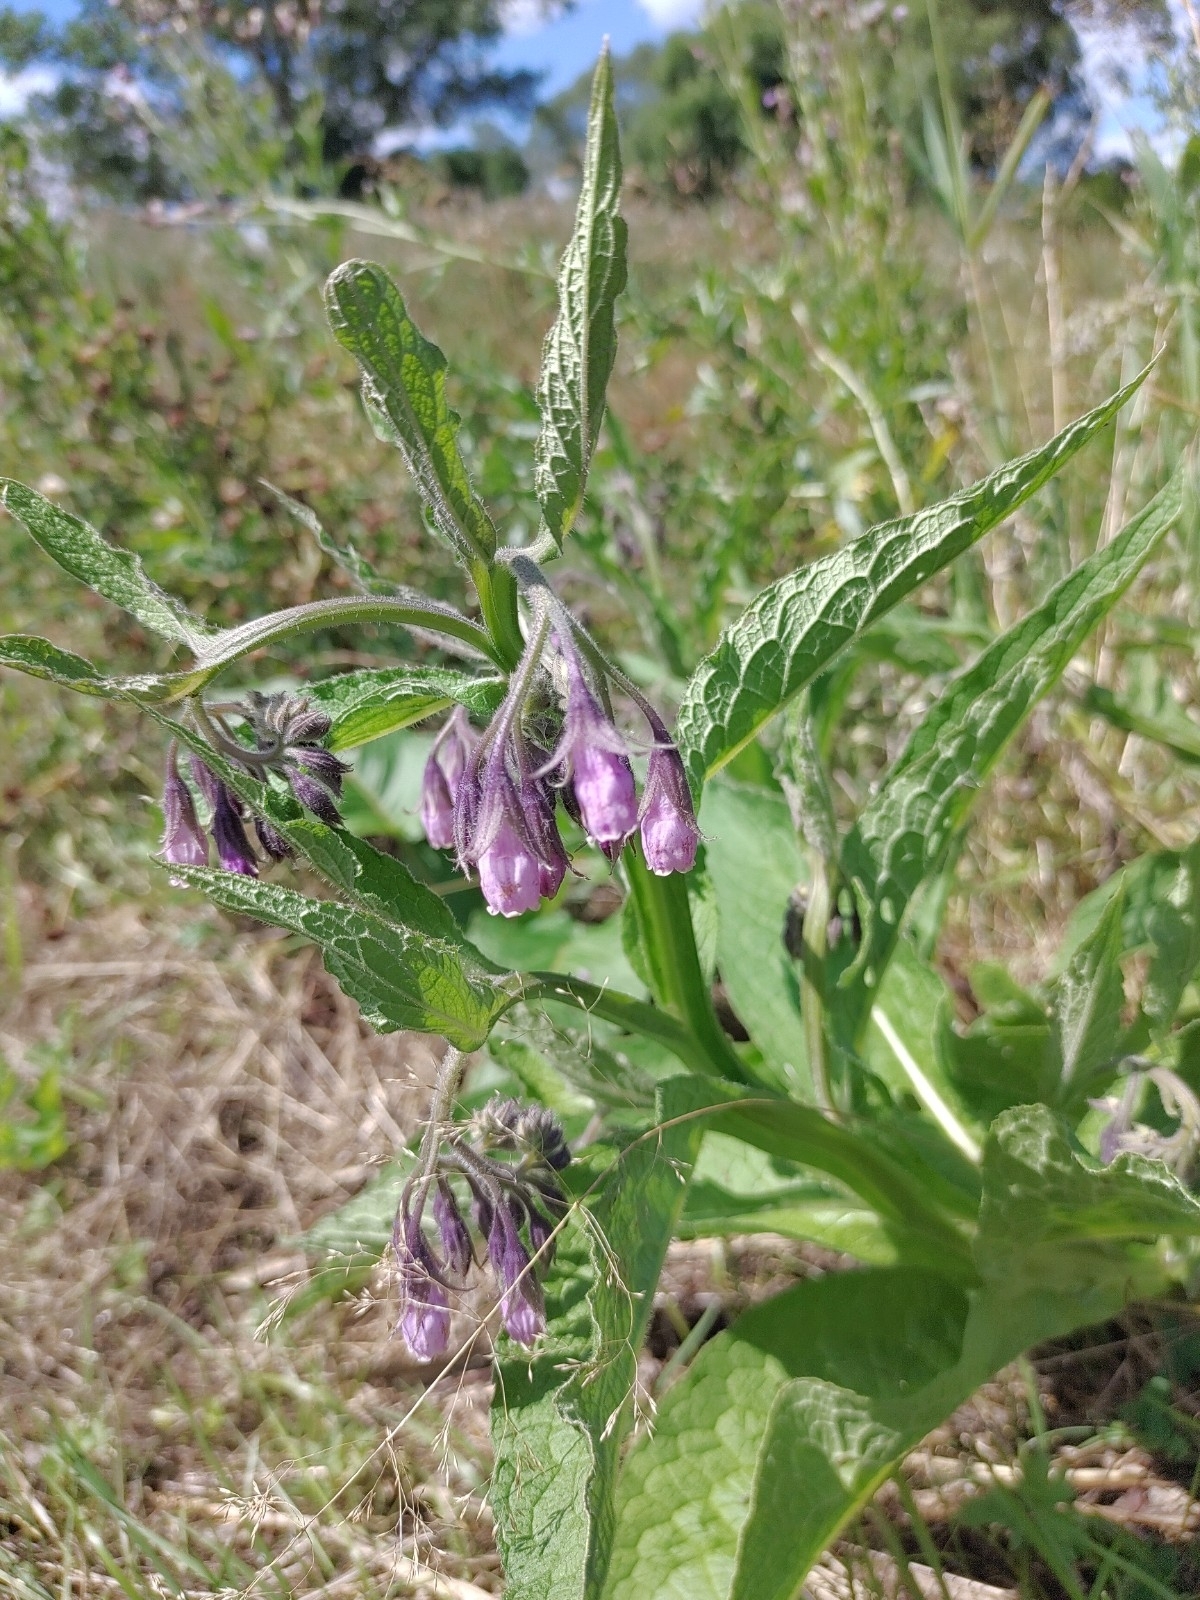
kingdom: Plantae
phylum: Tracheophyta
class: Magnoliopsida
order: Boraginales
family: Boraginaceae
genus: Symphytum
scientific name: Symphytum officinale
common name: Common comfrey
